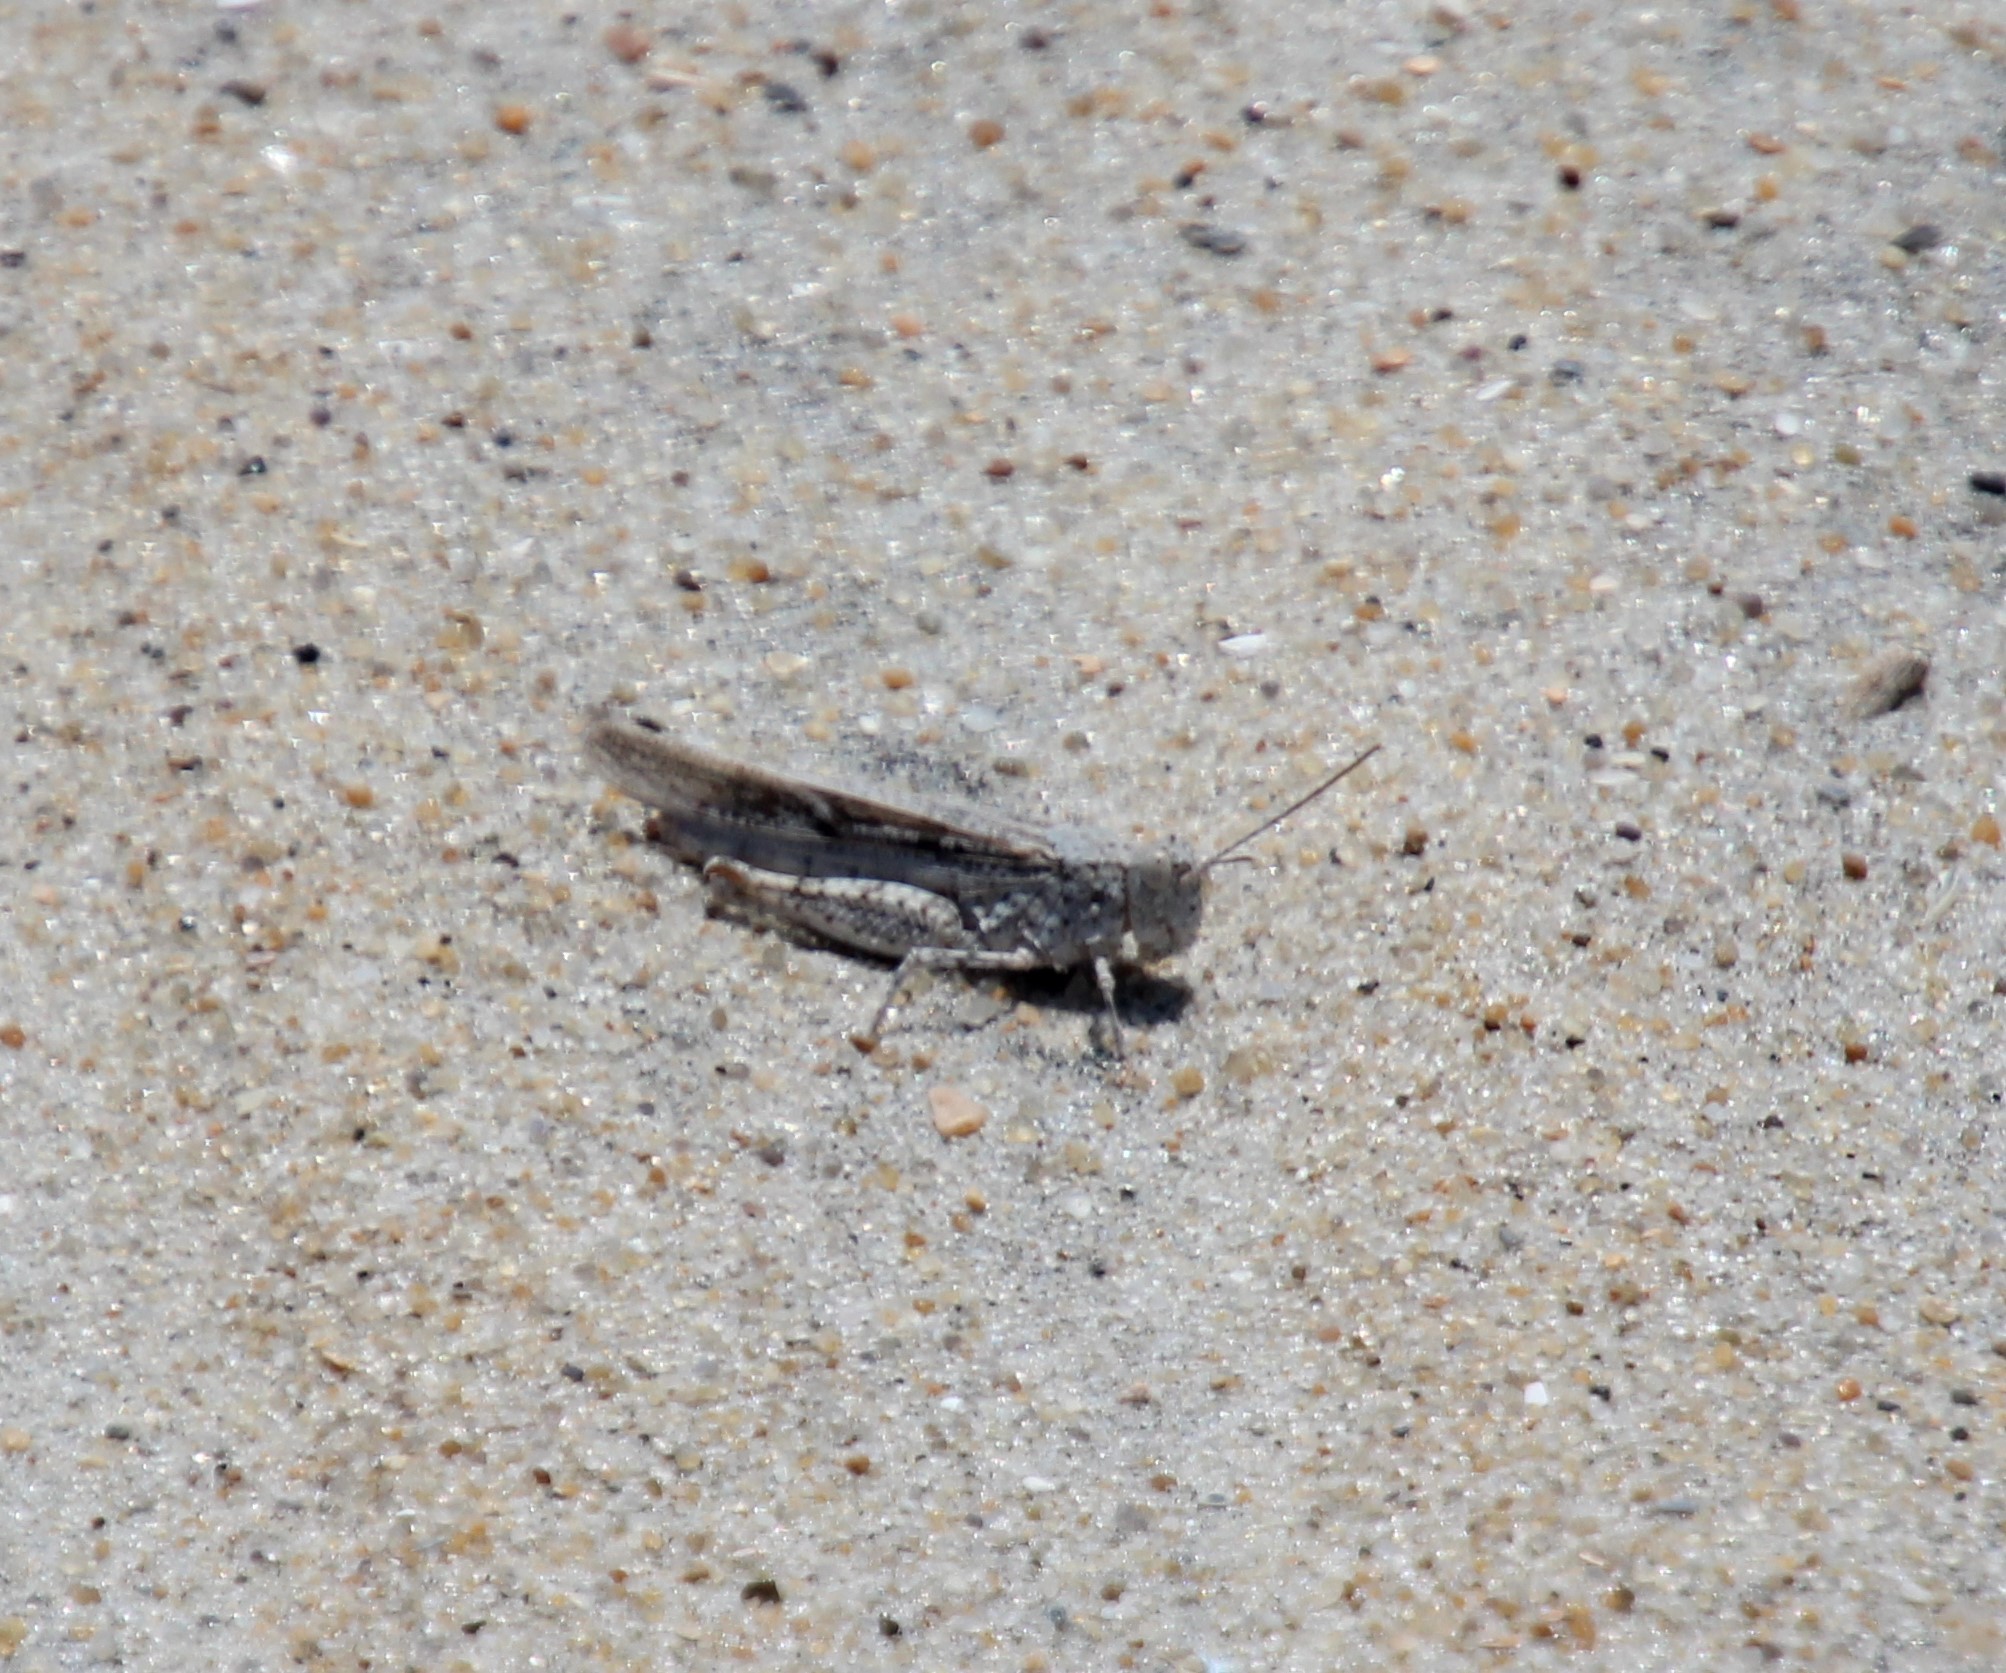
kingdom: Animalia
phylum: Arthropoda
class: Insecta
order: Orthoptera
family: Acrididae
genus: Trimerotropis
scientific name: Trimerotropis maritima
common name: Seaside locust
